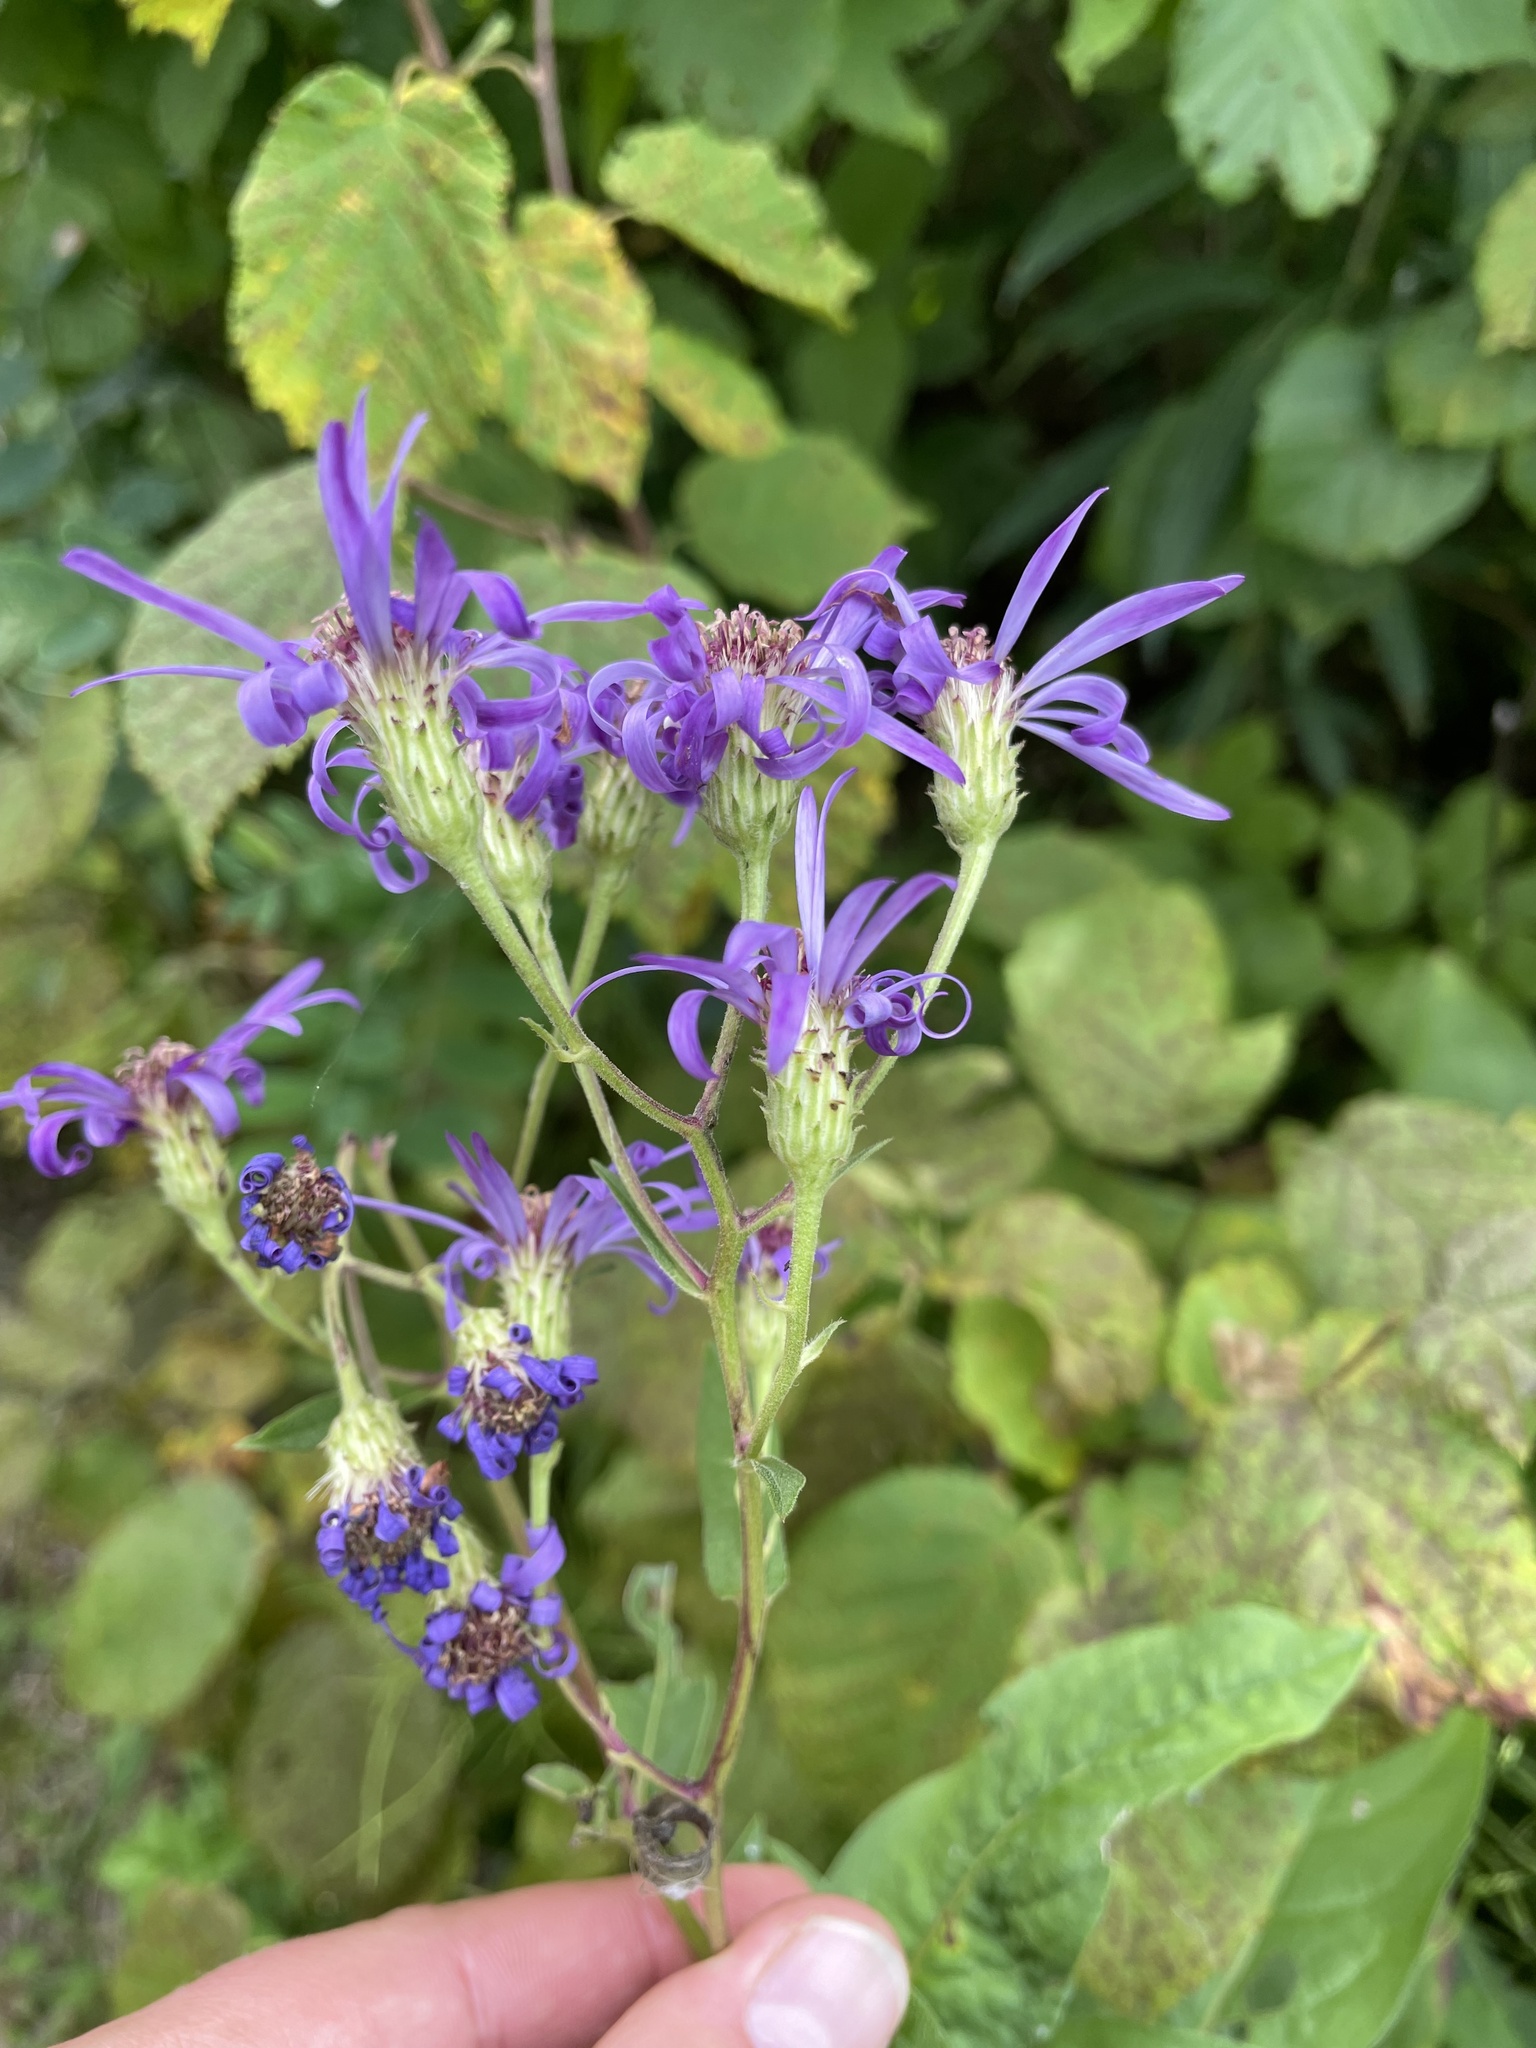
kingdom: Plantae
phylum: Tracheophyta
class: Magnoliopsida
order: Asterales
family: Asteraceae
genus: Eurybia
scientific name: Eurybia conspicua
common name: Showy aster
